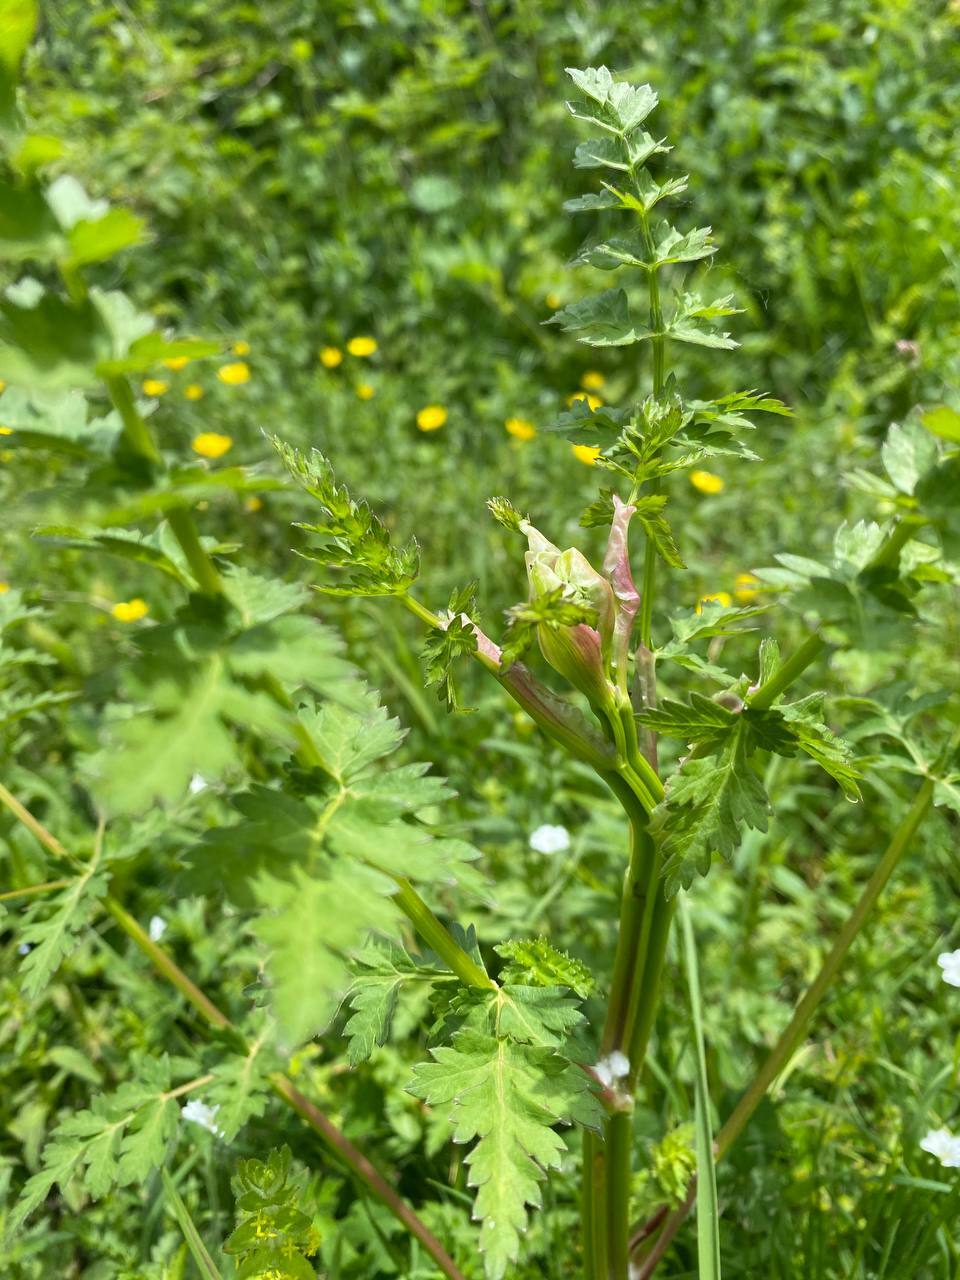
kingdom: Plantae
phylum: Tracheophyta
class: Magnoliopsida
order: Apiales
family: Apiaceae
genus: Seseli
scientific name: Seseli libanotis
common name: Mooncarrot
